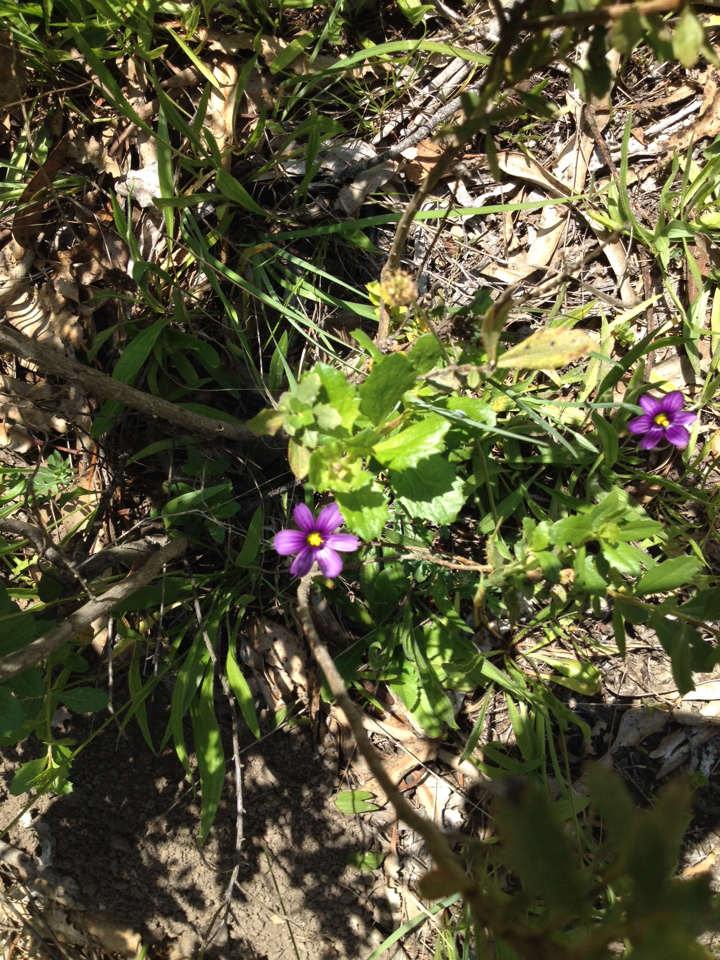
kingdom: Plantae
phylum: Tracheophyta
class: Liliopsida
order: Asparagales
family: Iridaceae
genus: Sisyrinchium
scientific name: Sisyrinchium bellum
